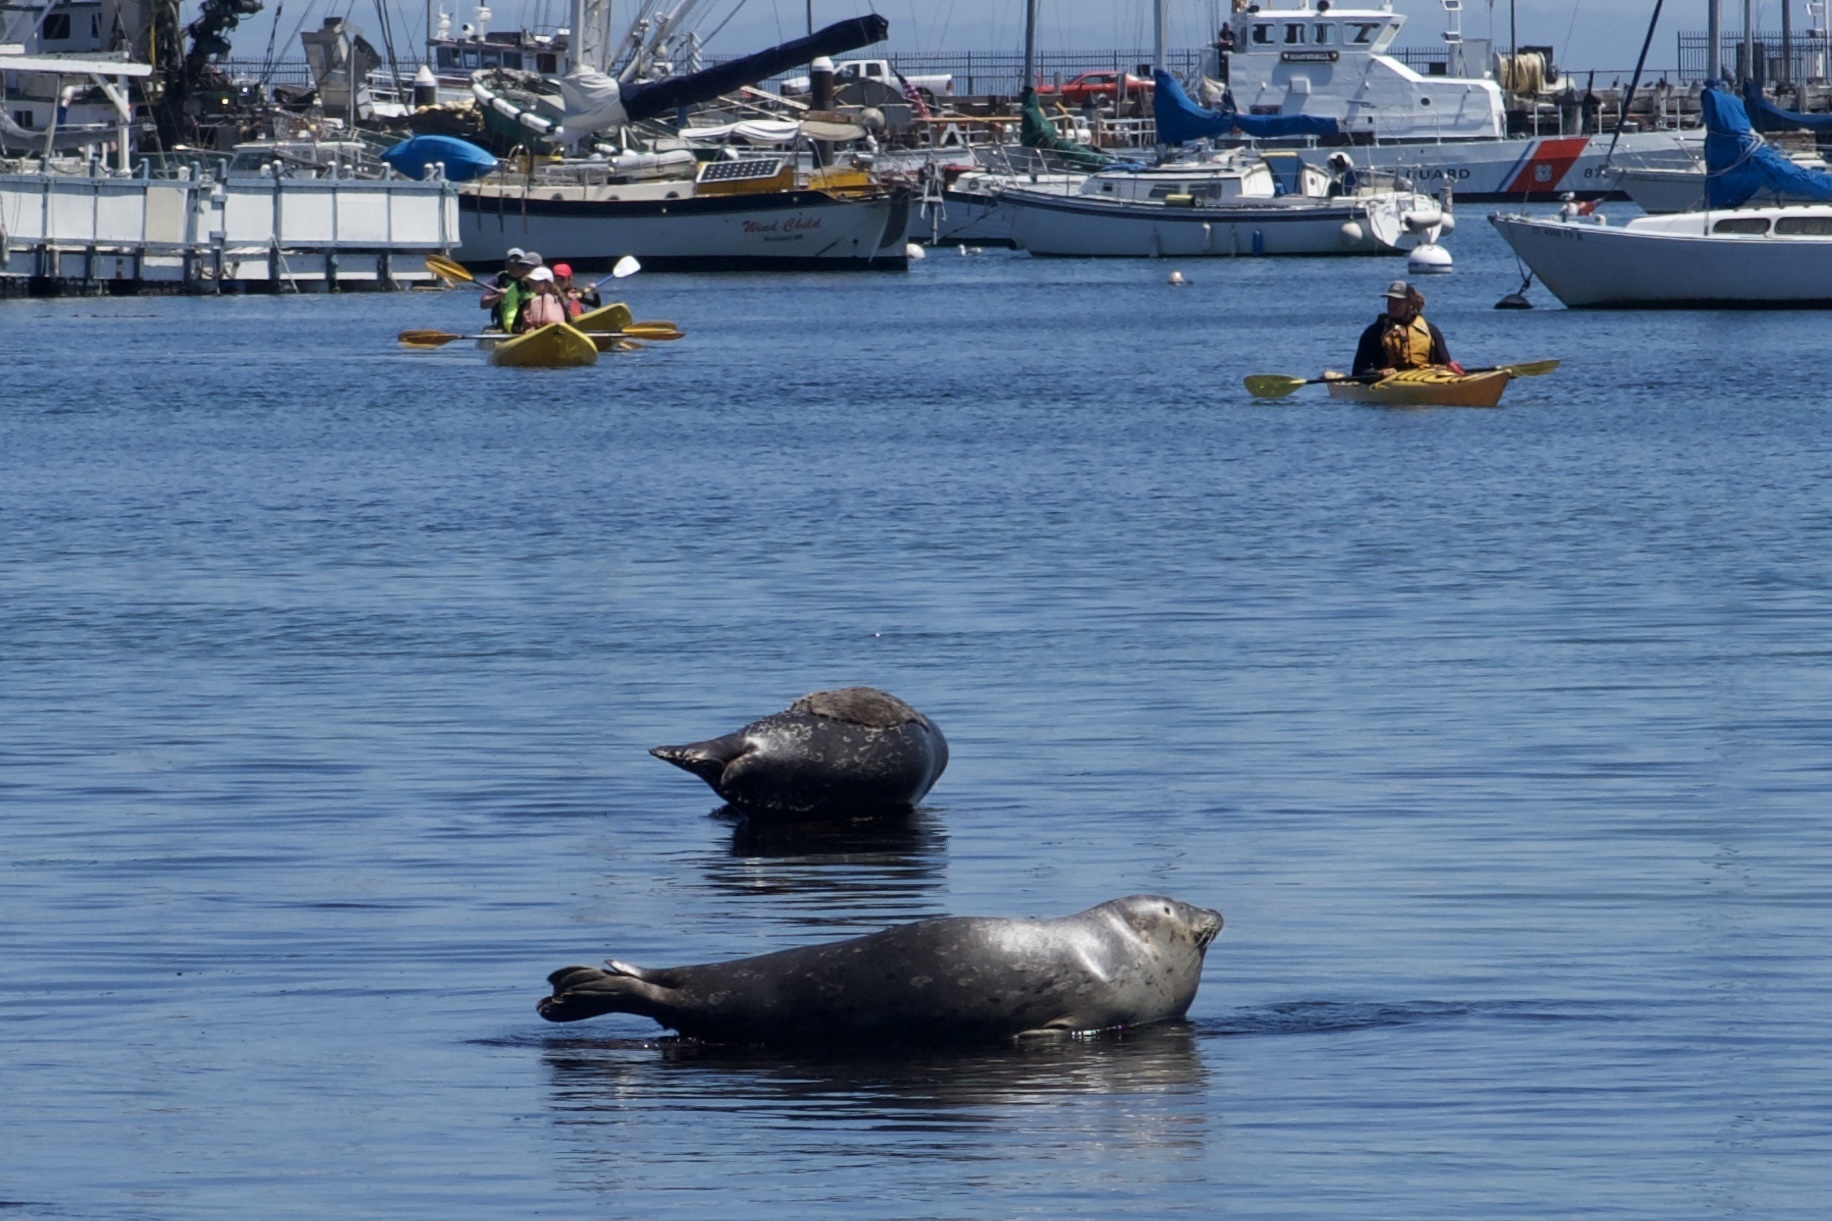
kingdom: Animalia
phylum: Chordata
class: Mammalia
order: Carnivora
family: Phocidae
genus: Phoca
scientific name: Phoca vitulina
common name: Harbor seal
